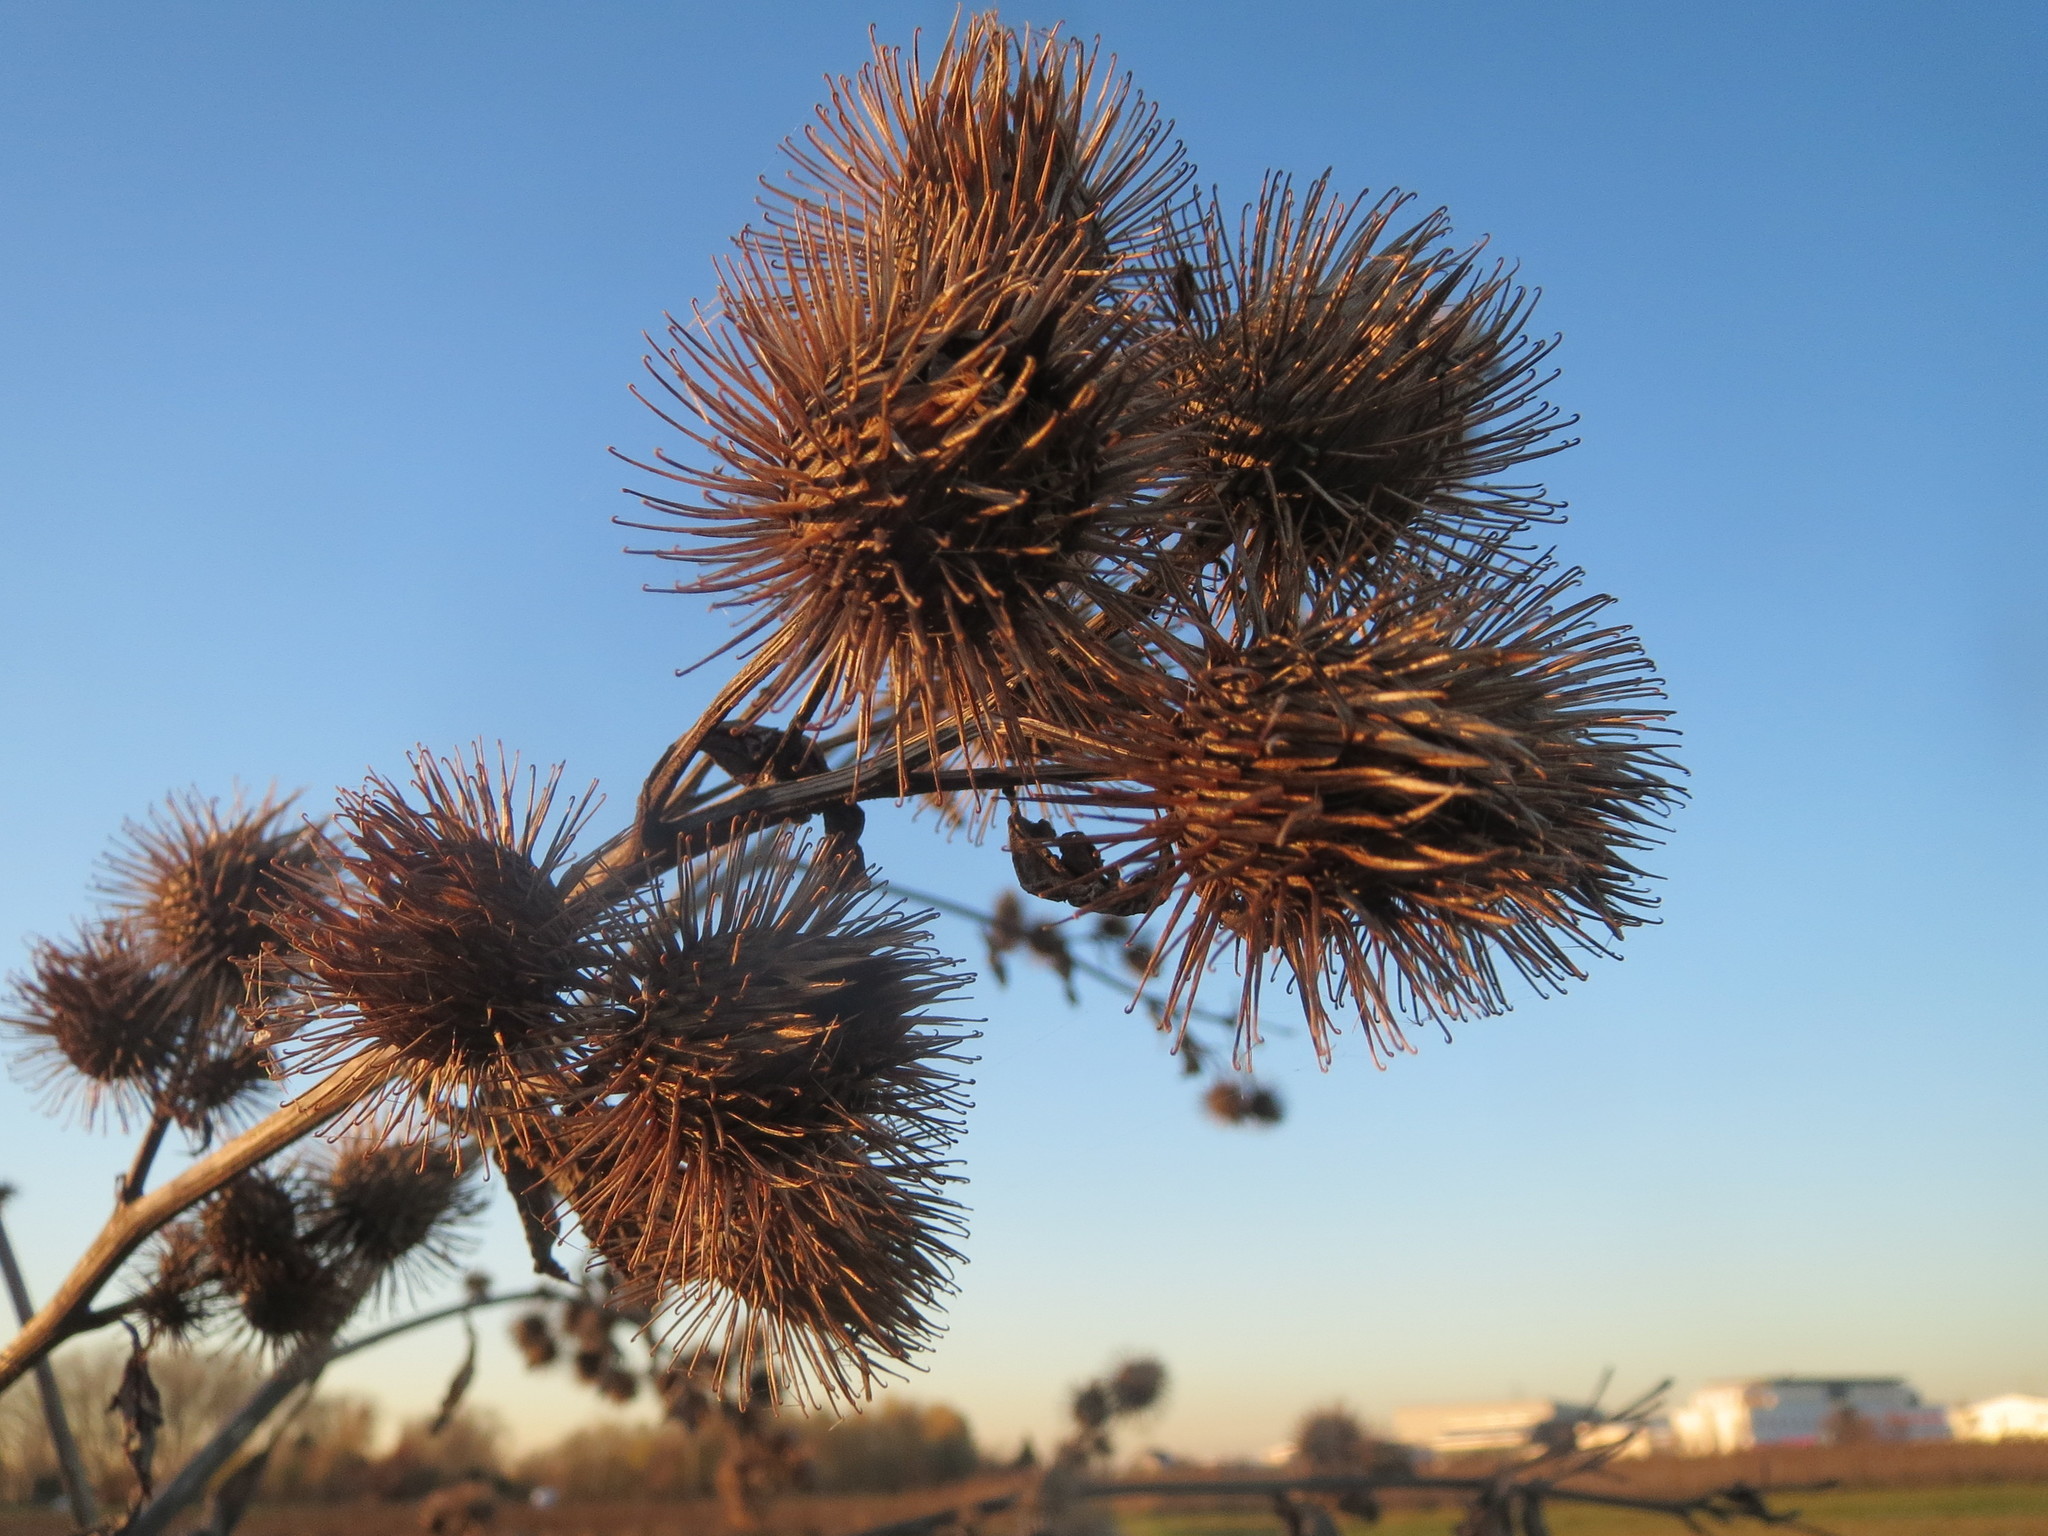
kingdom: Plantae
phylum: Tracheophyta
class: Magnoliopsida
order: Asterales
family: Asteraceae
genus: Arctium
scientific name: Arctium lappa
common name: Greater burdock
